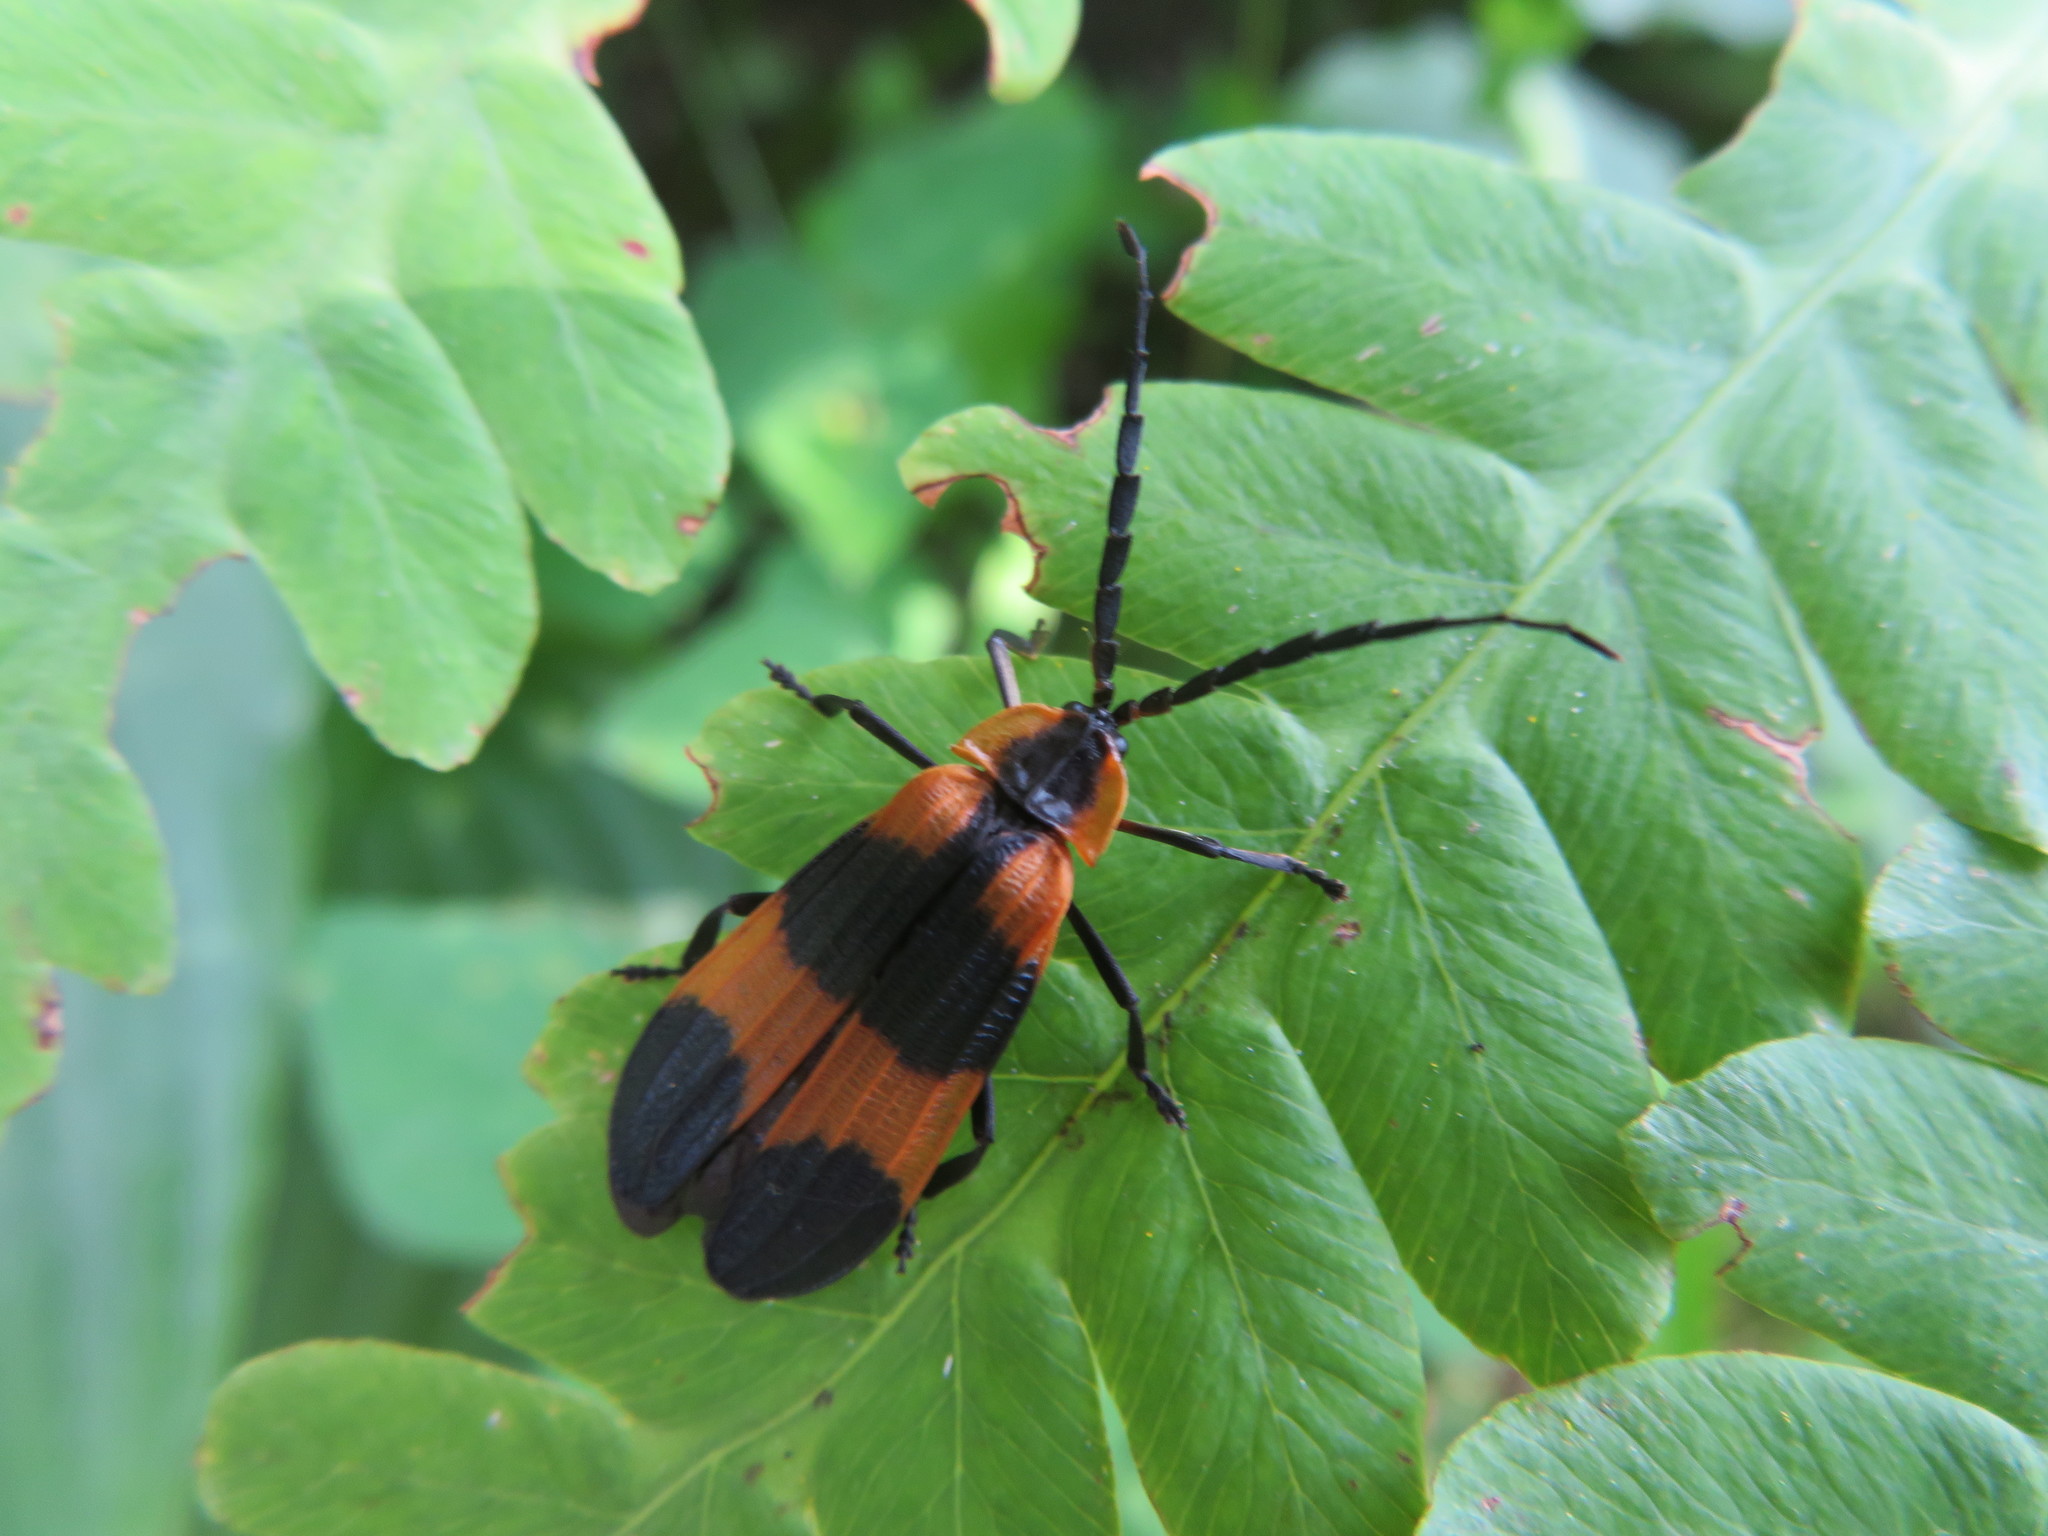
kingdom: Animalia
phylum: Arthropoda
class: Insecta
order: Coleoptera
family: Lycidae
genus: Calopteron
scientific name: Calopteron reticulatum
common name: Banded net-winged beetle
